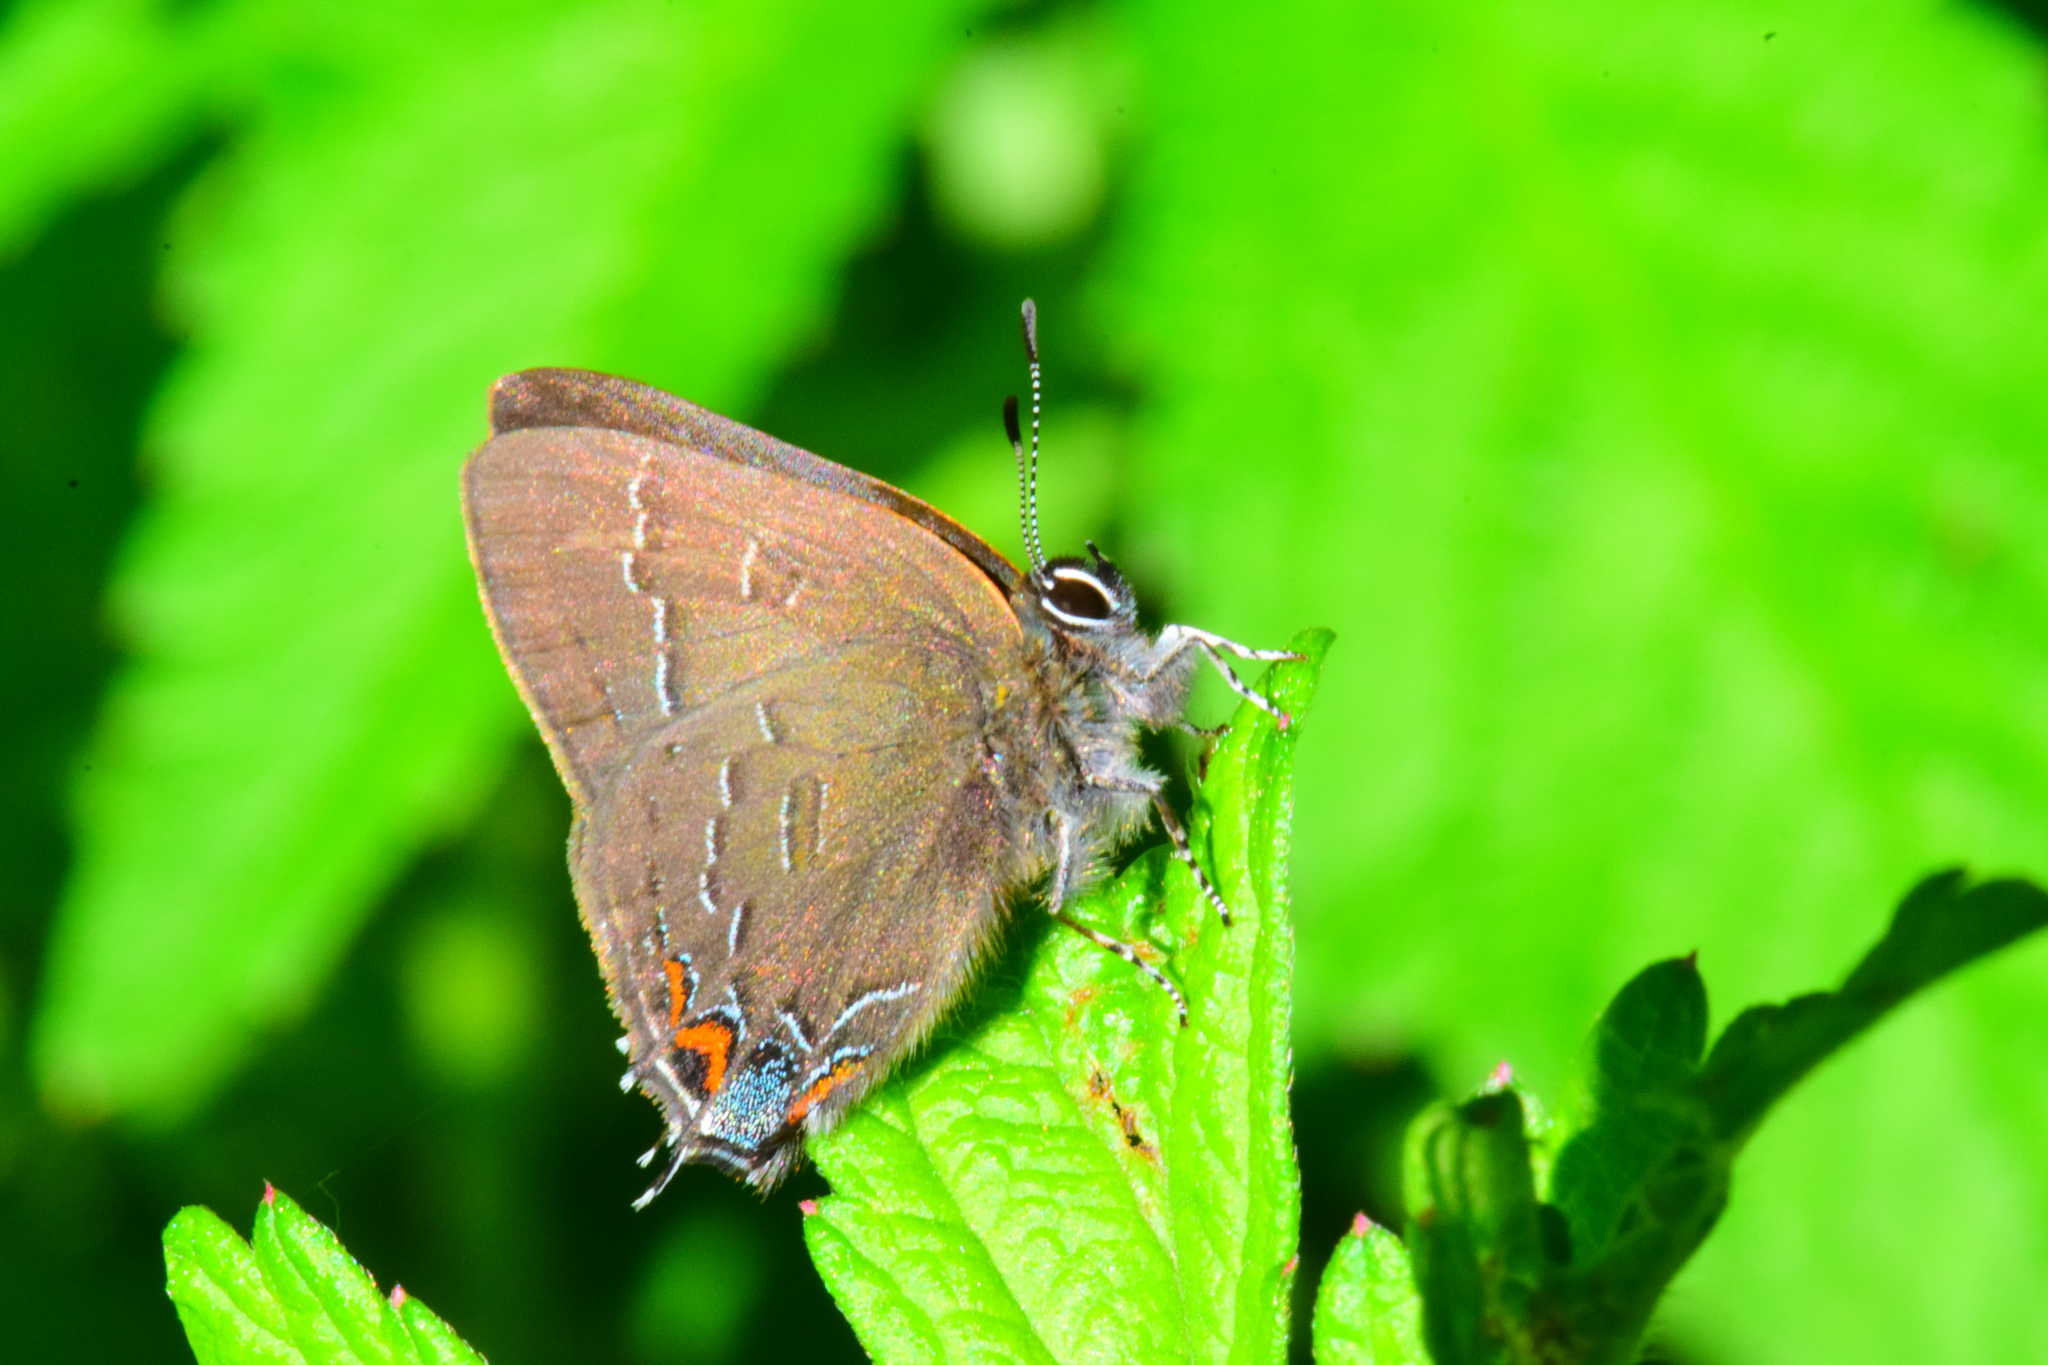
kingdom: Animalia
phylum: Arthropoda
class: Insecta
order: Lepidoptera
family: Lycaenidae
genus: Satyrium
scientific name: Satyrium calanus
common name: Banded hairstreak
